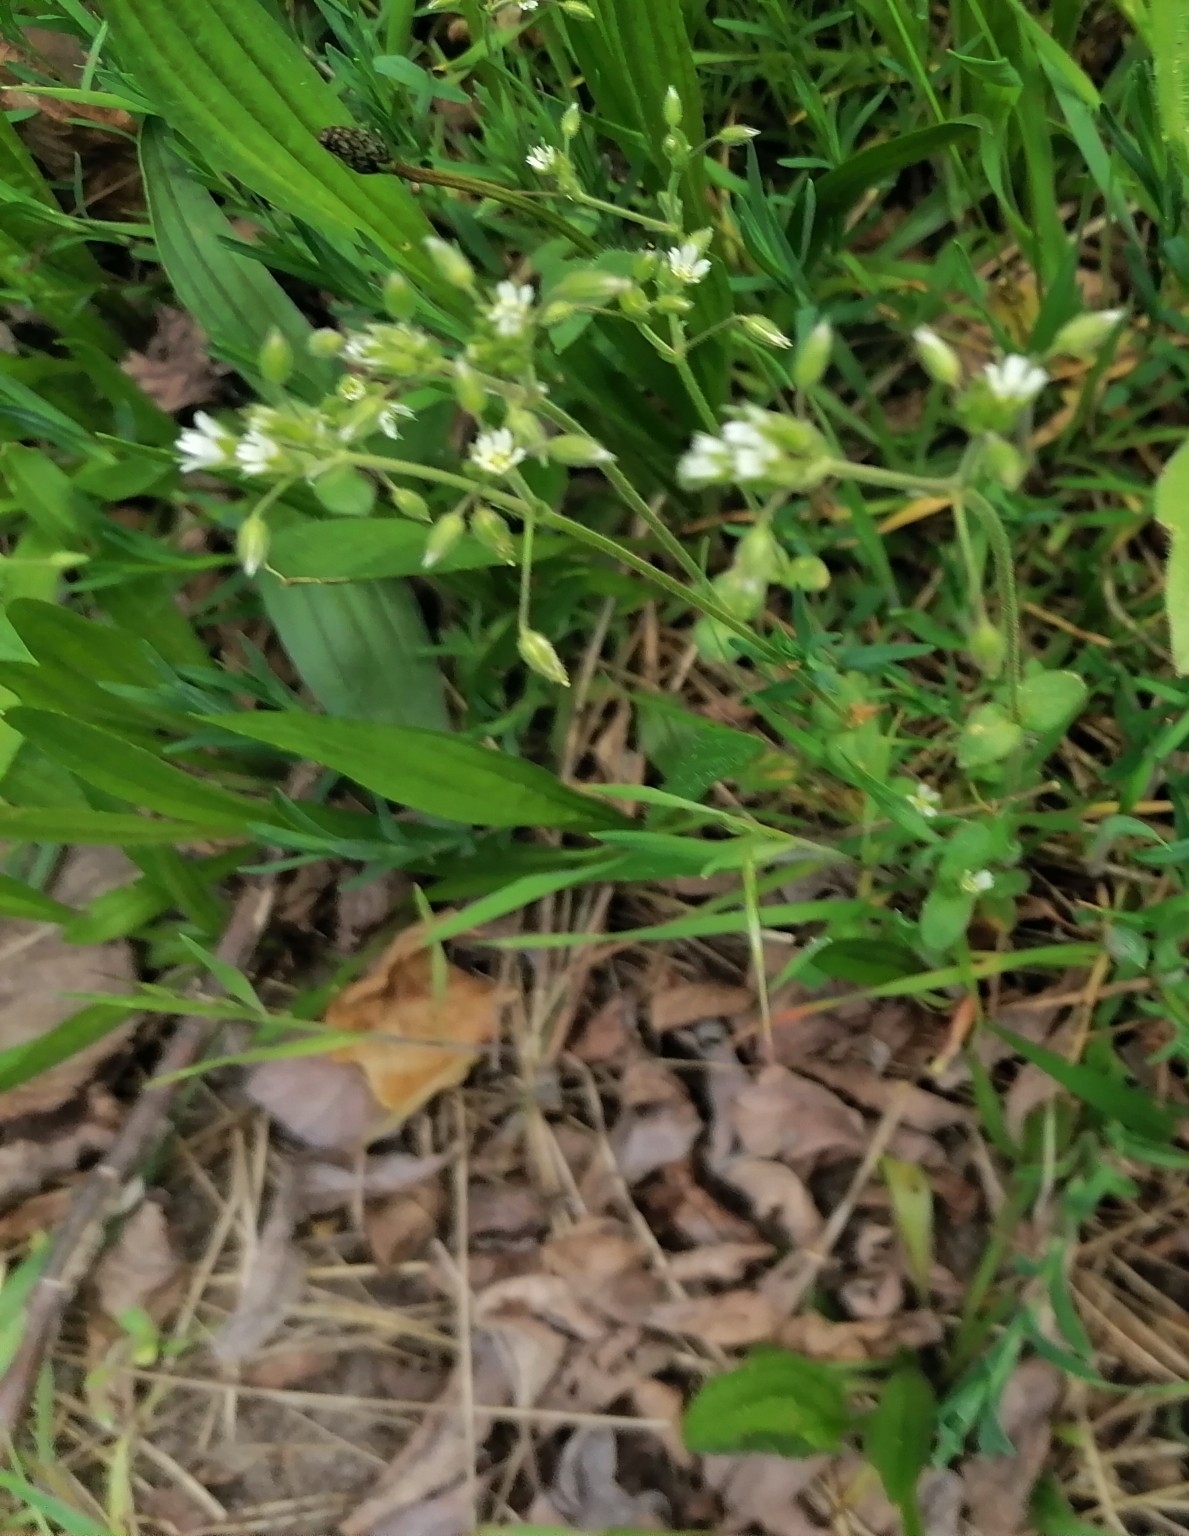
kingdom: Plantae
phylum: Tracheophyta
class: Magnoliopsida
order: Caryophyllales
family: Caryophyllaceae
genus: Cerastium
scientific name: Cerastium semidecandrum
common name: Little mouse-ear
